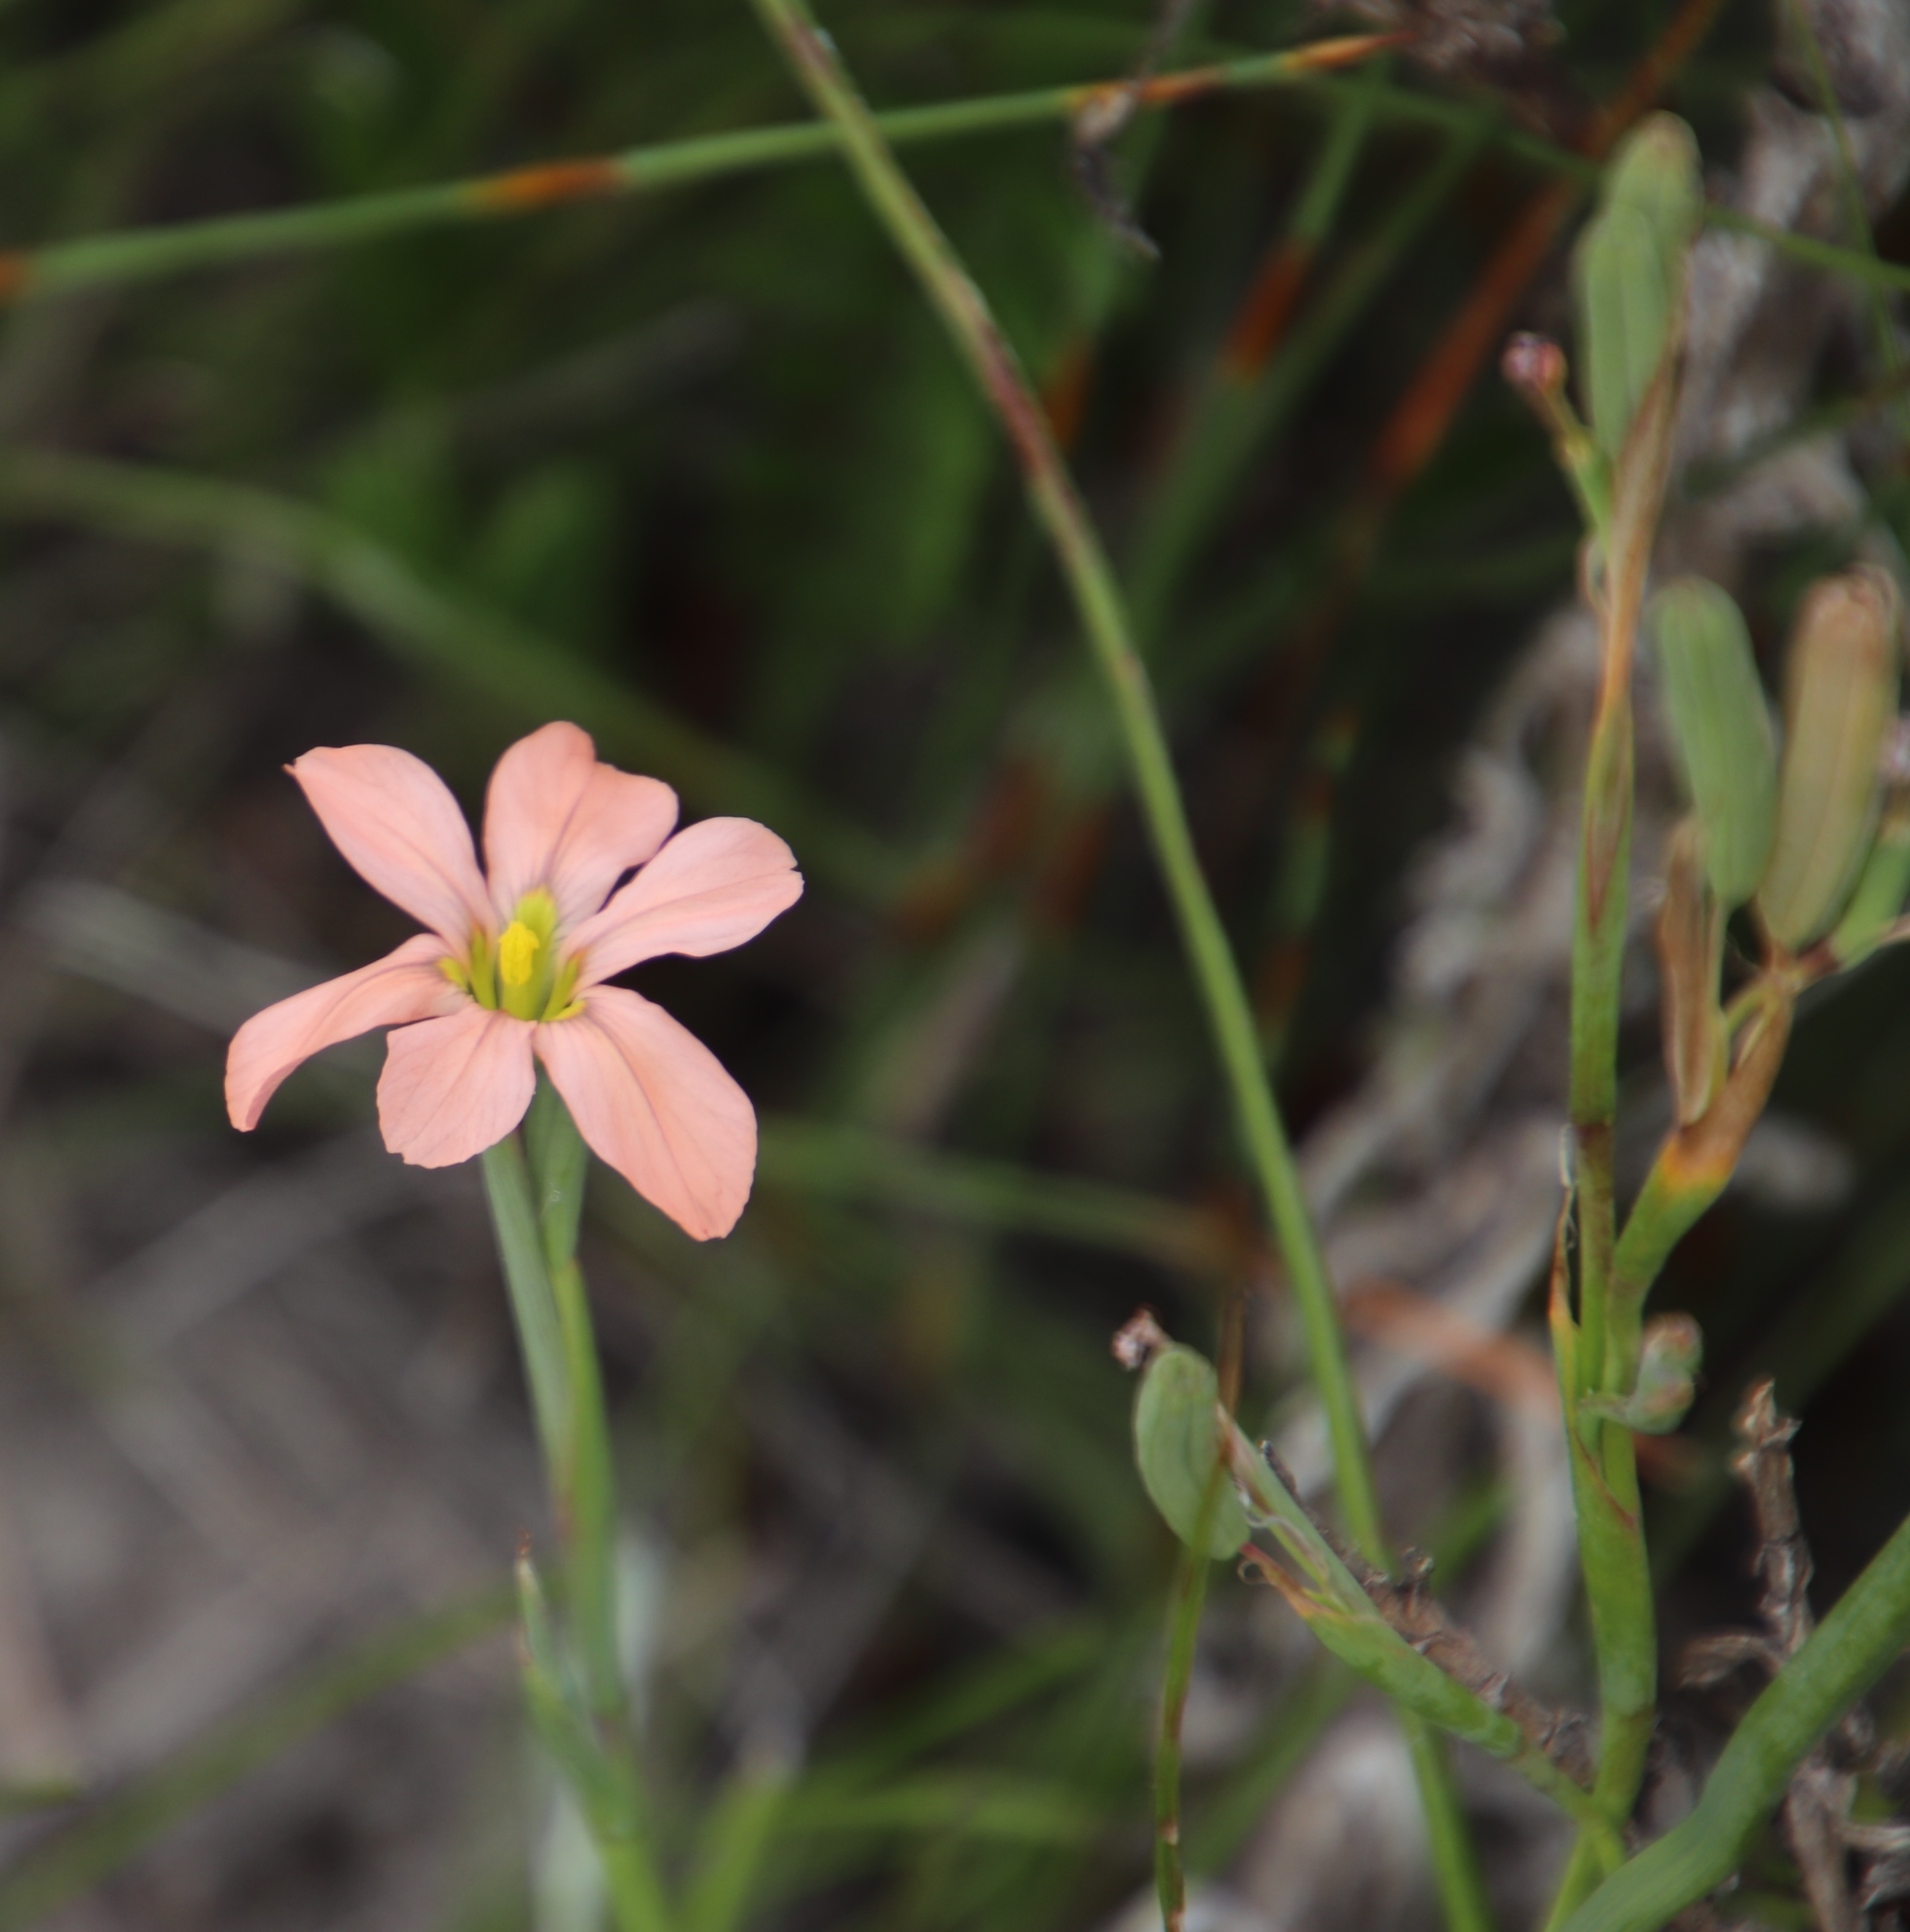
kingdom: Plantae
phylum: Tracheophyta
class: Liliopsida
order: Asparagales
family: Iridaceae
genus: Moraea
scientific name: Moraea miniata
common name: Two-leaf cape-tulip
